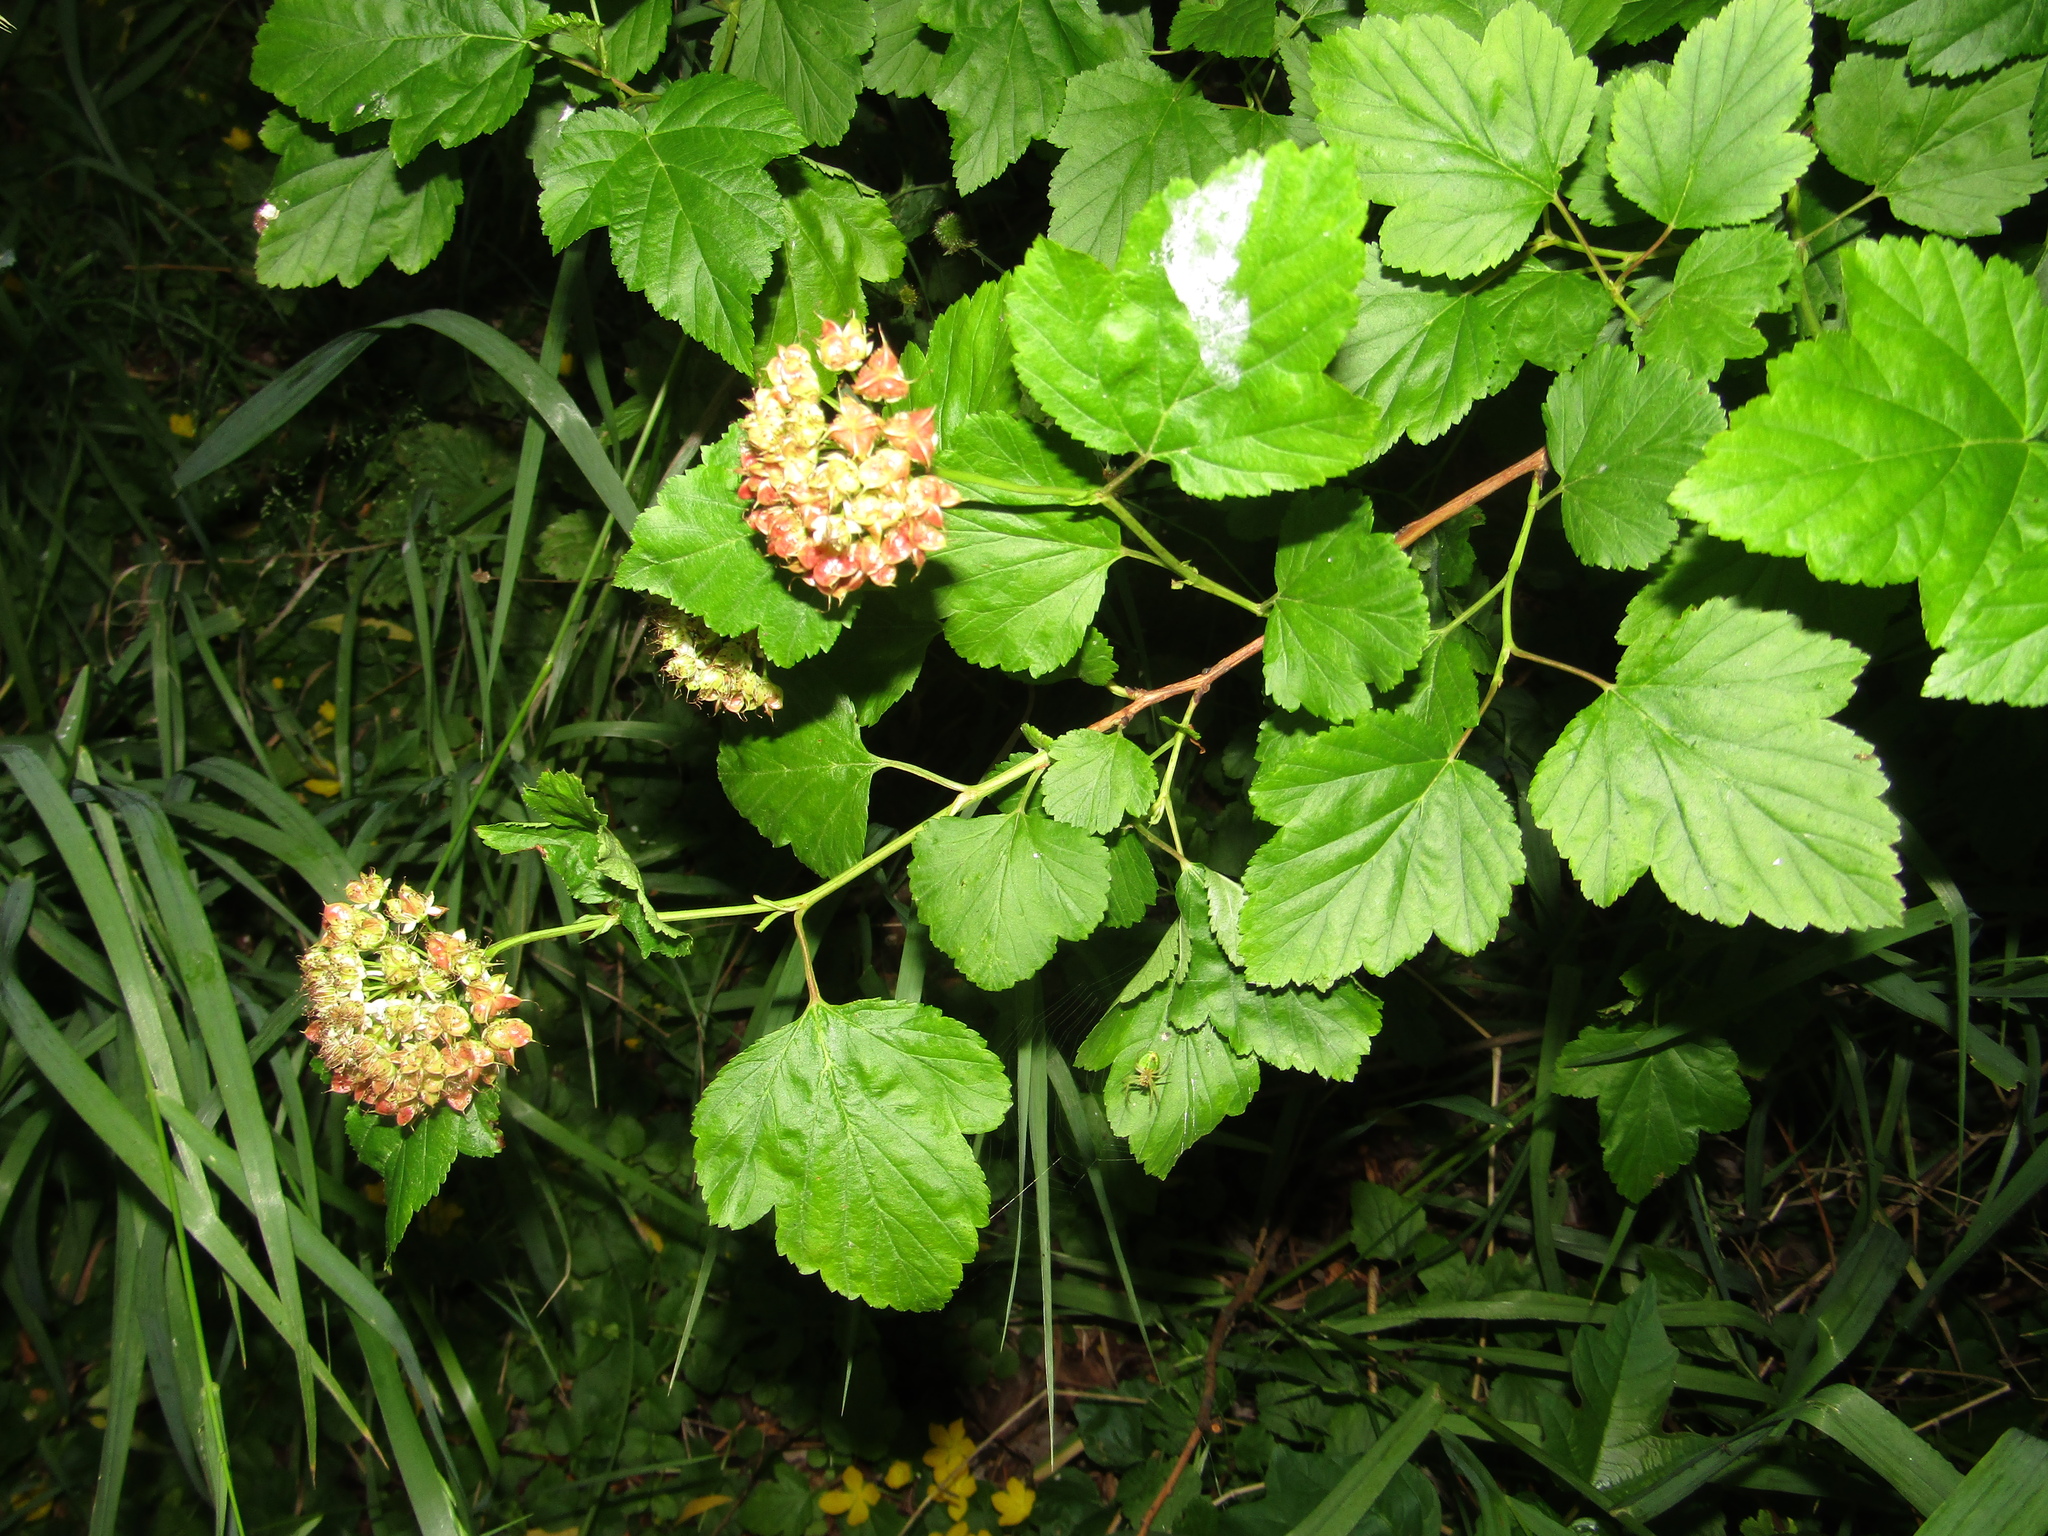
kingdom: Plantae
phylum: Tracheophyta
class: Magnoliopsida
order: Rosales
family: Rosaceae
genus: Physocarpus
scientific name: Physocarpus opulifolius
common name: Ninebark
